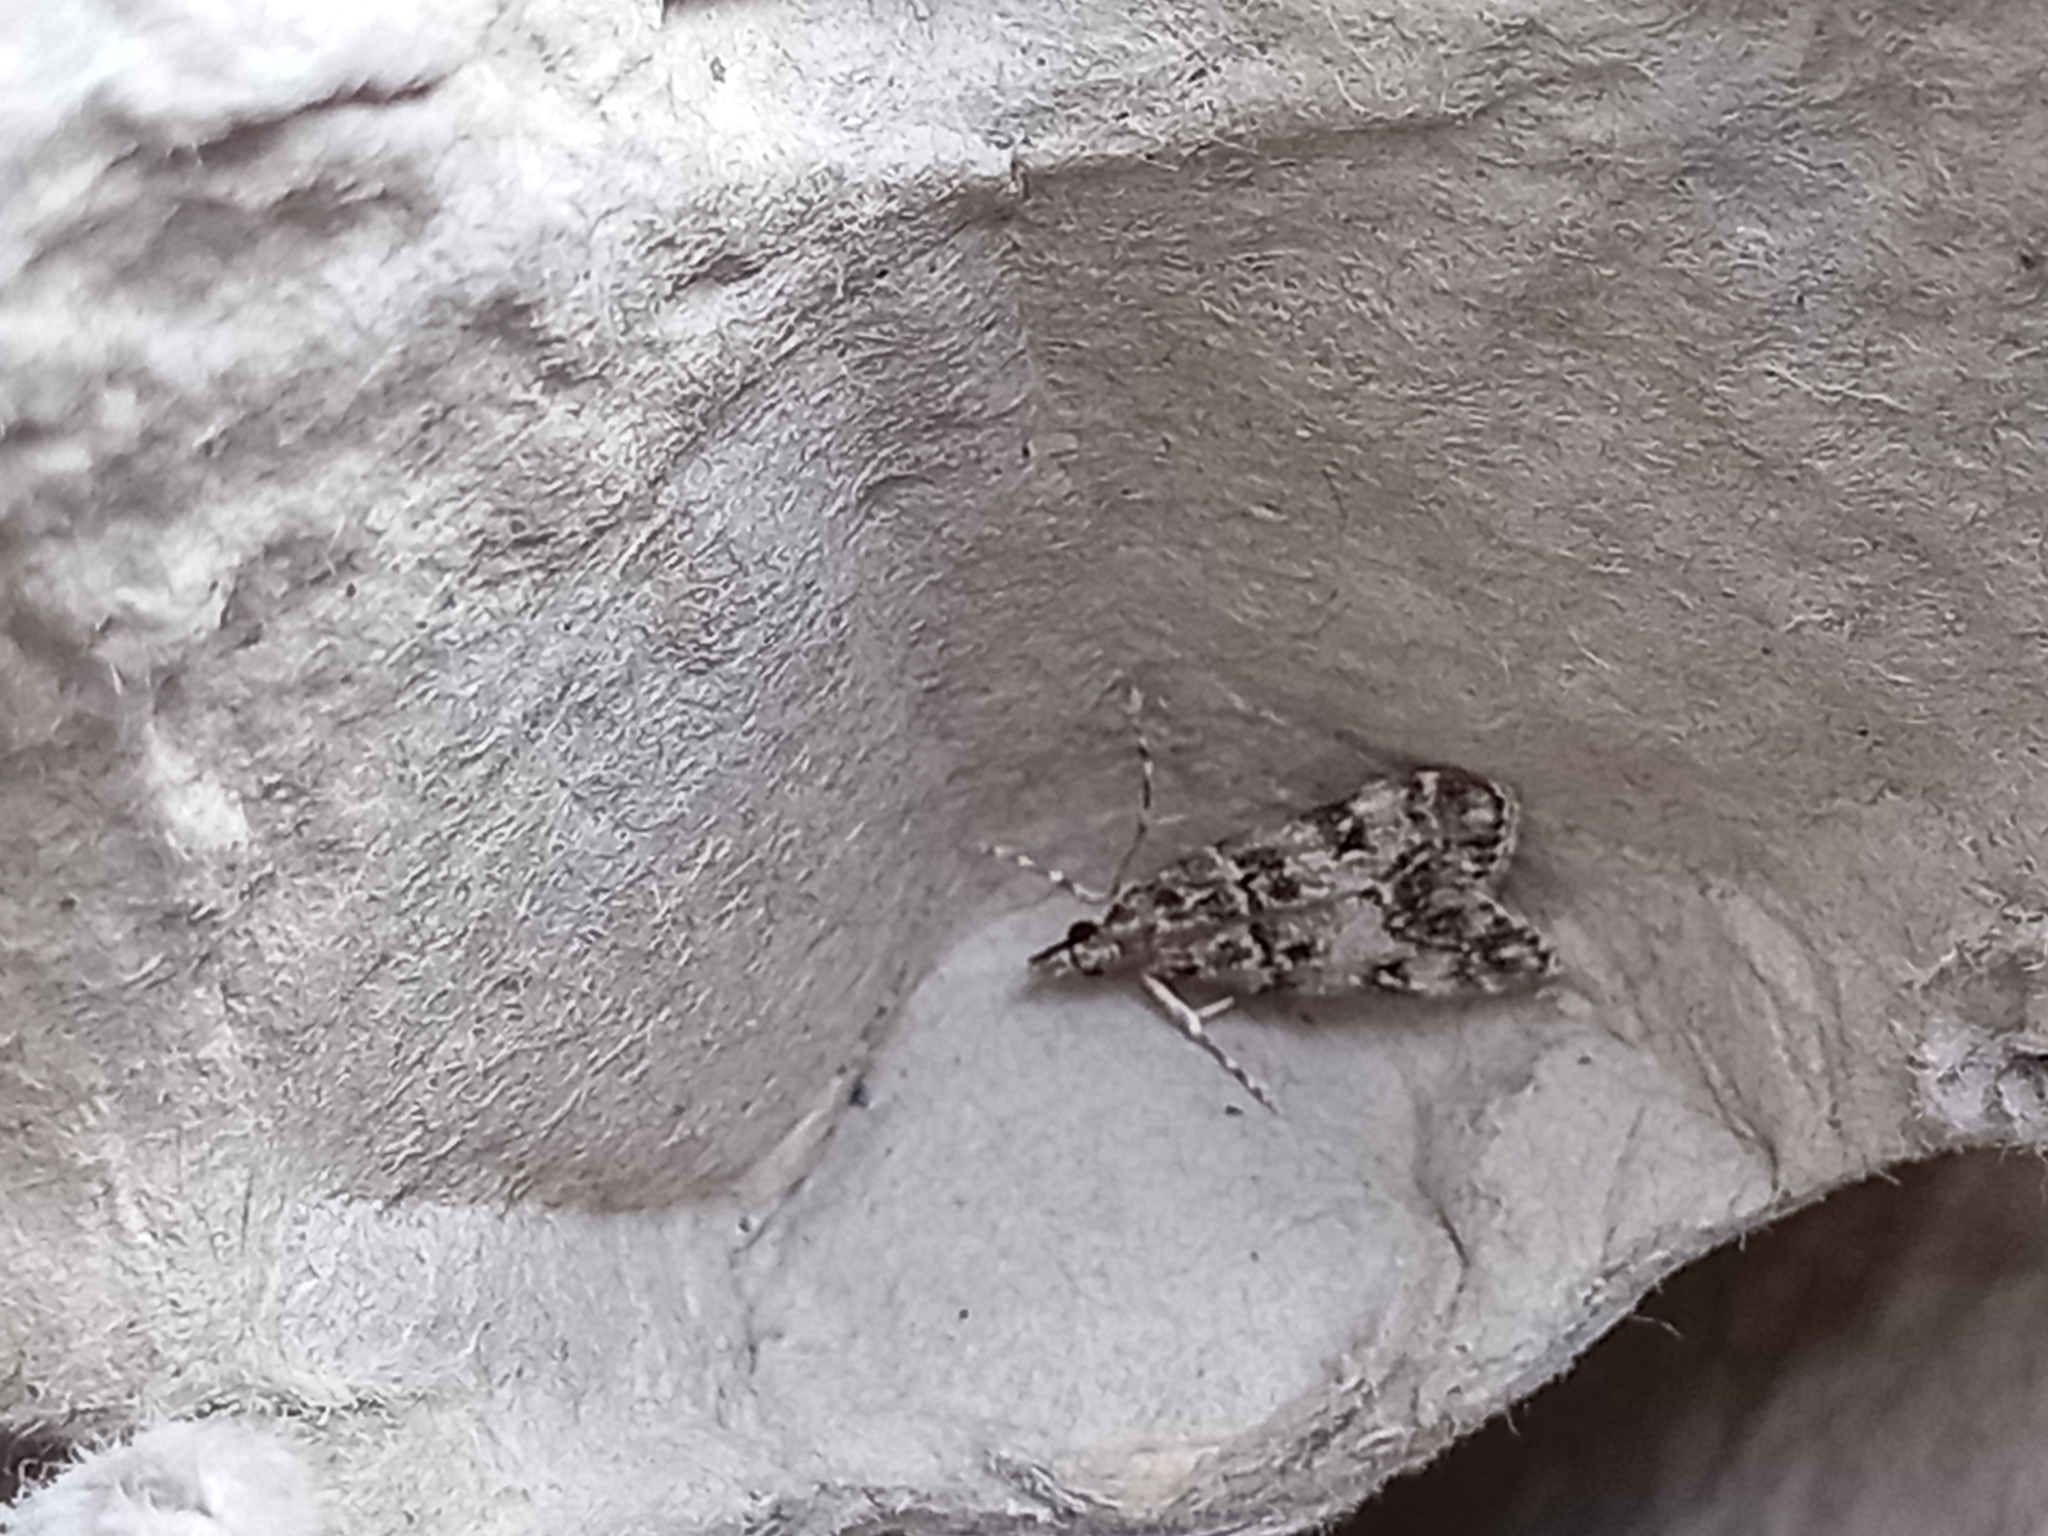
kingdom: Animalia
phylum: Arthropoda
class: Insecta
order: Lepidoptera
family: Crambidae
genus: Eudonia
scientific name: Eudonia lacustrata
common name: Little grey
